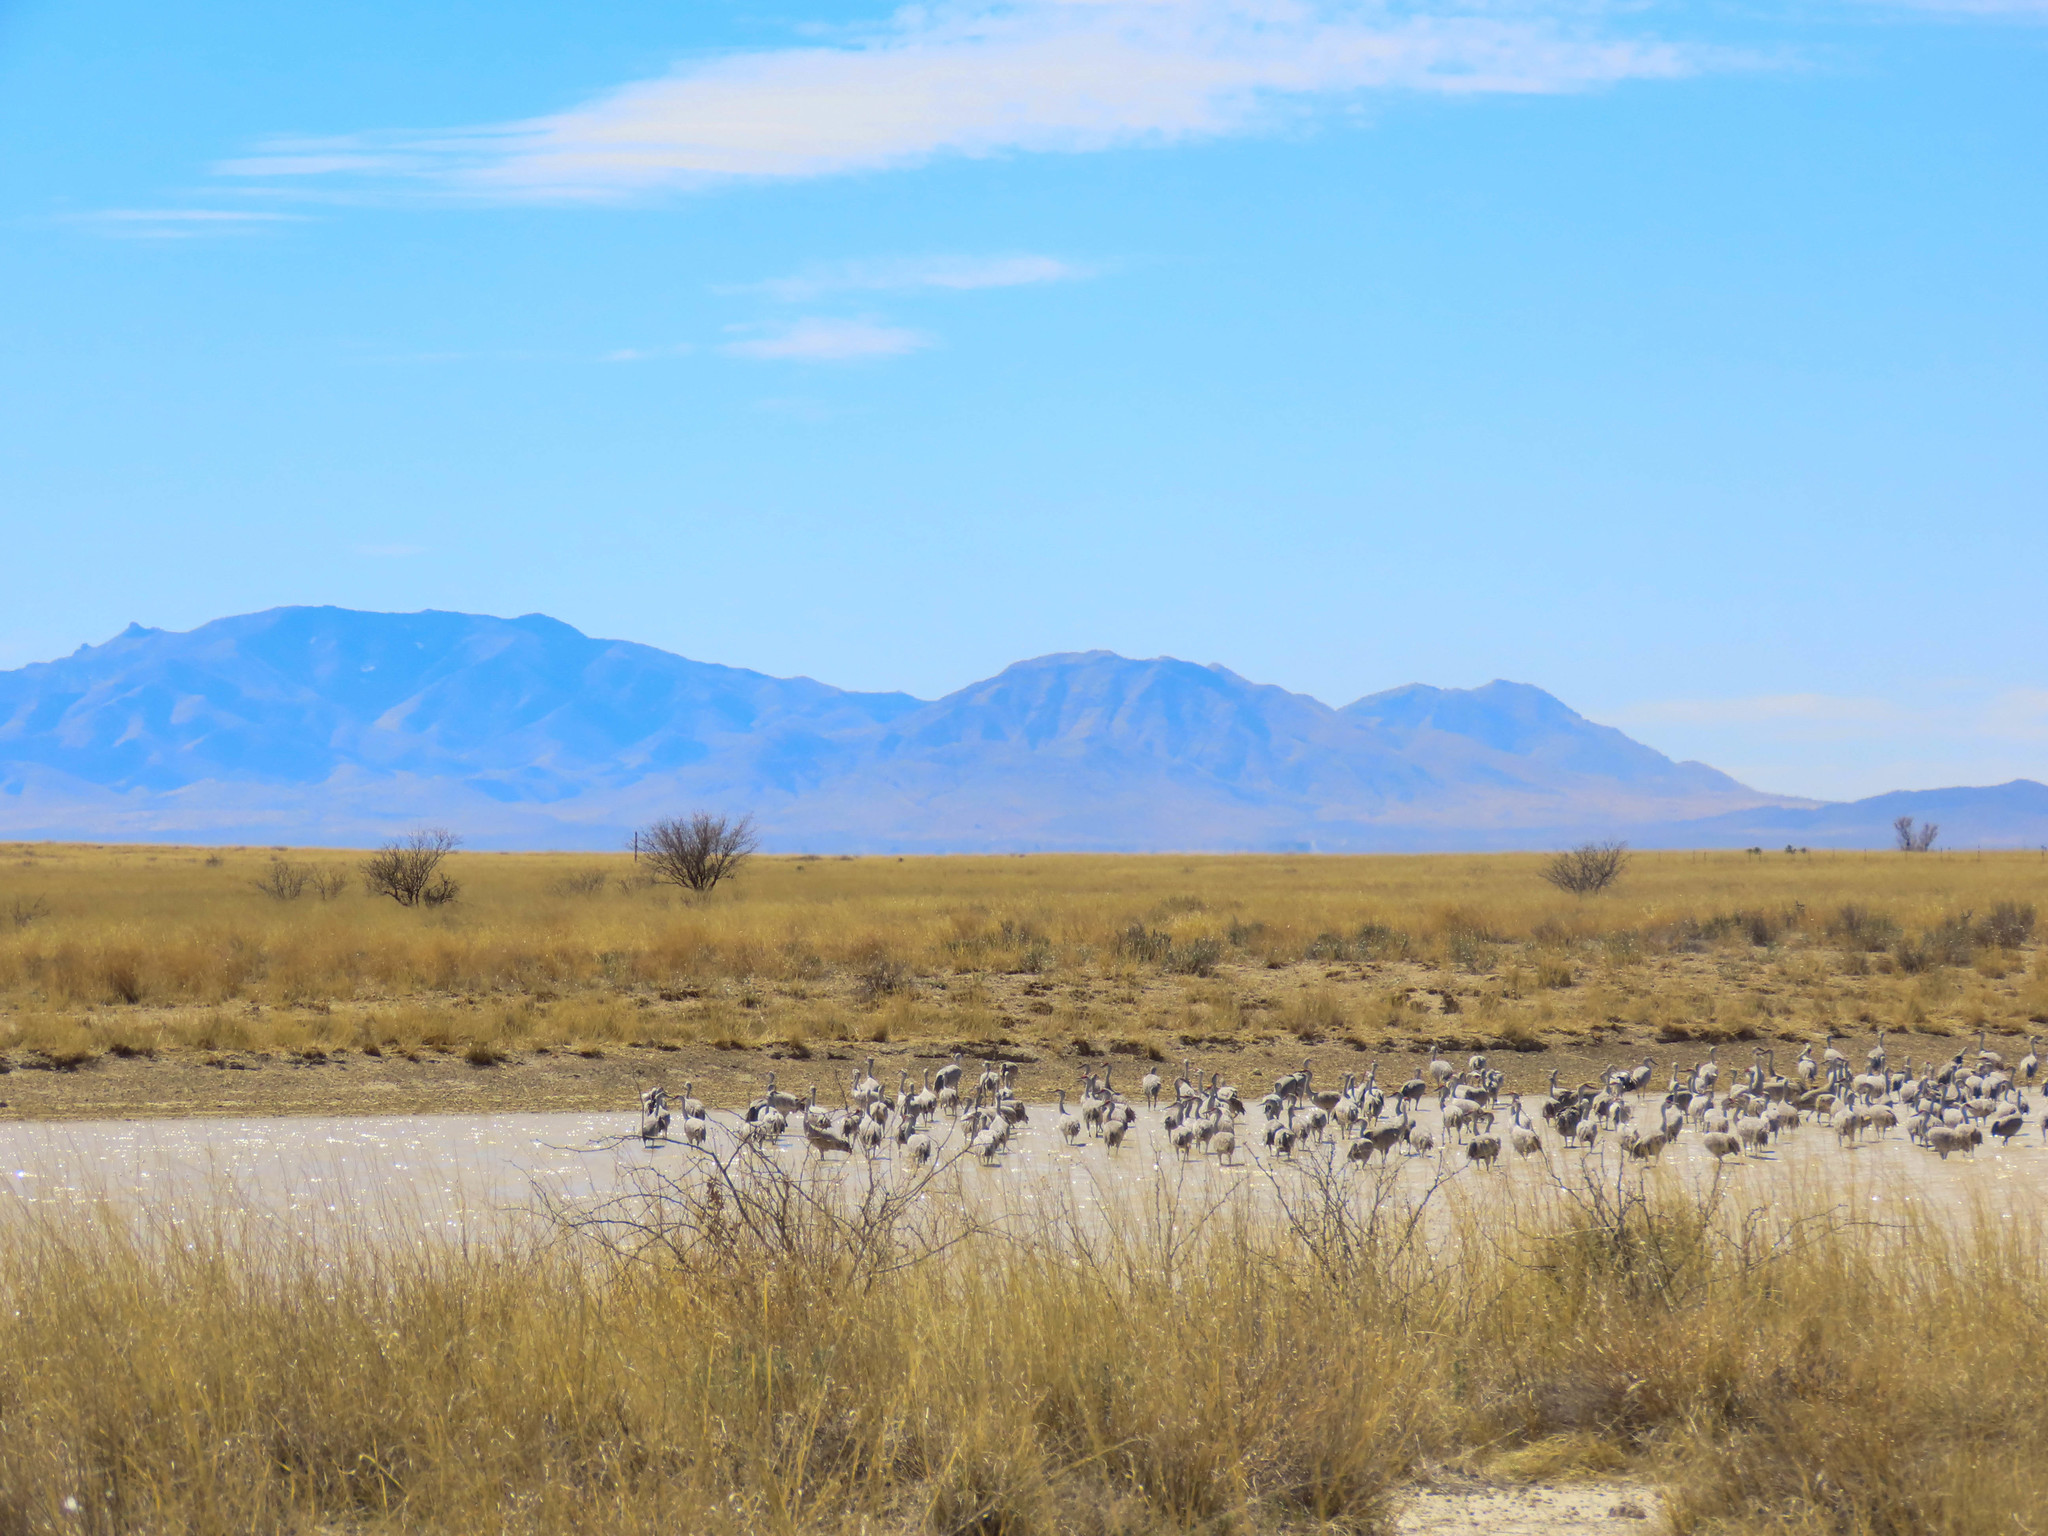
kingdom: Animalia
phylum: Chordata
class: Aves
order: Gruiformes
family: Gruidae
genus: Grus
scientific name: Grus canadensis
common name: Sandhill crane
